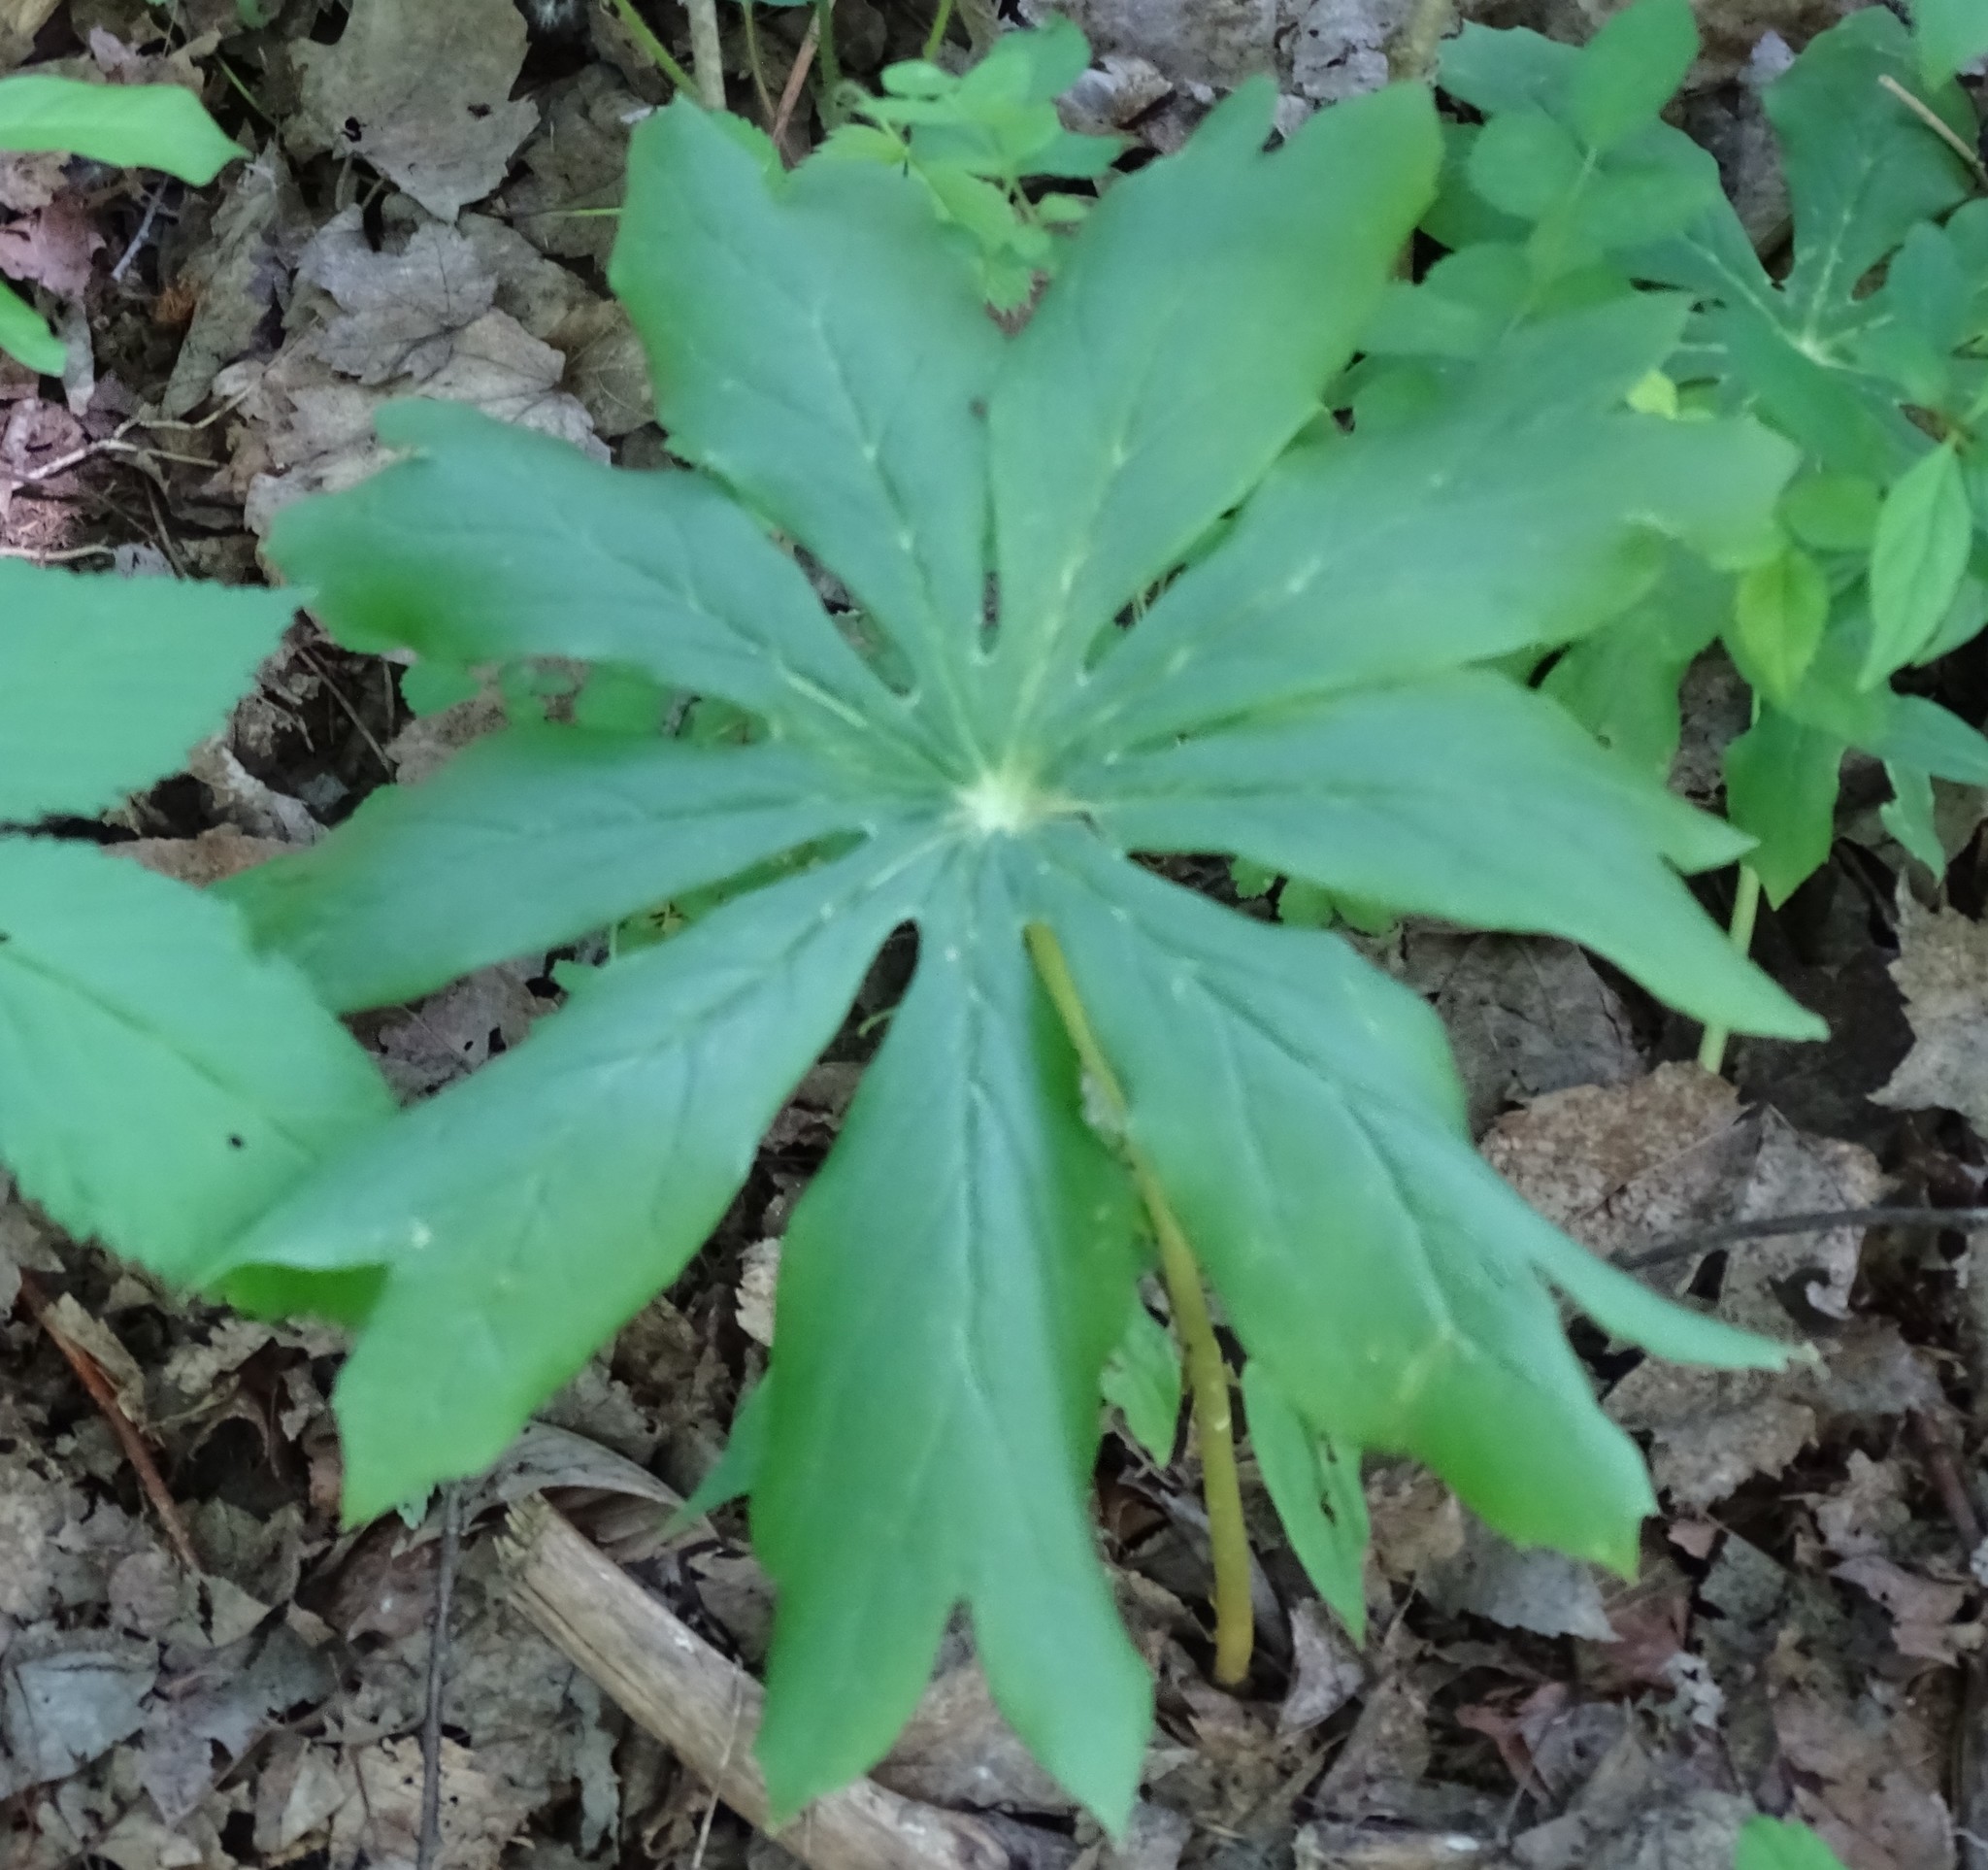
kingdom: Plantae
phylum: Tracheophyta
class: Magnoliopsida
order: Ranunculales
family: Berberidaceae
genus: Podophyllum
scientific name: Podophyllum peltatum
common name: Wild mandrake
